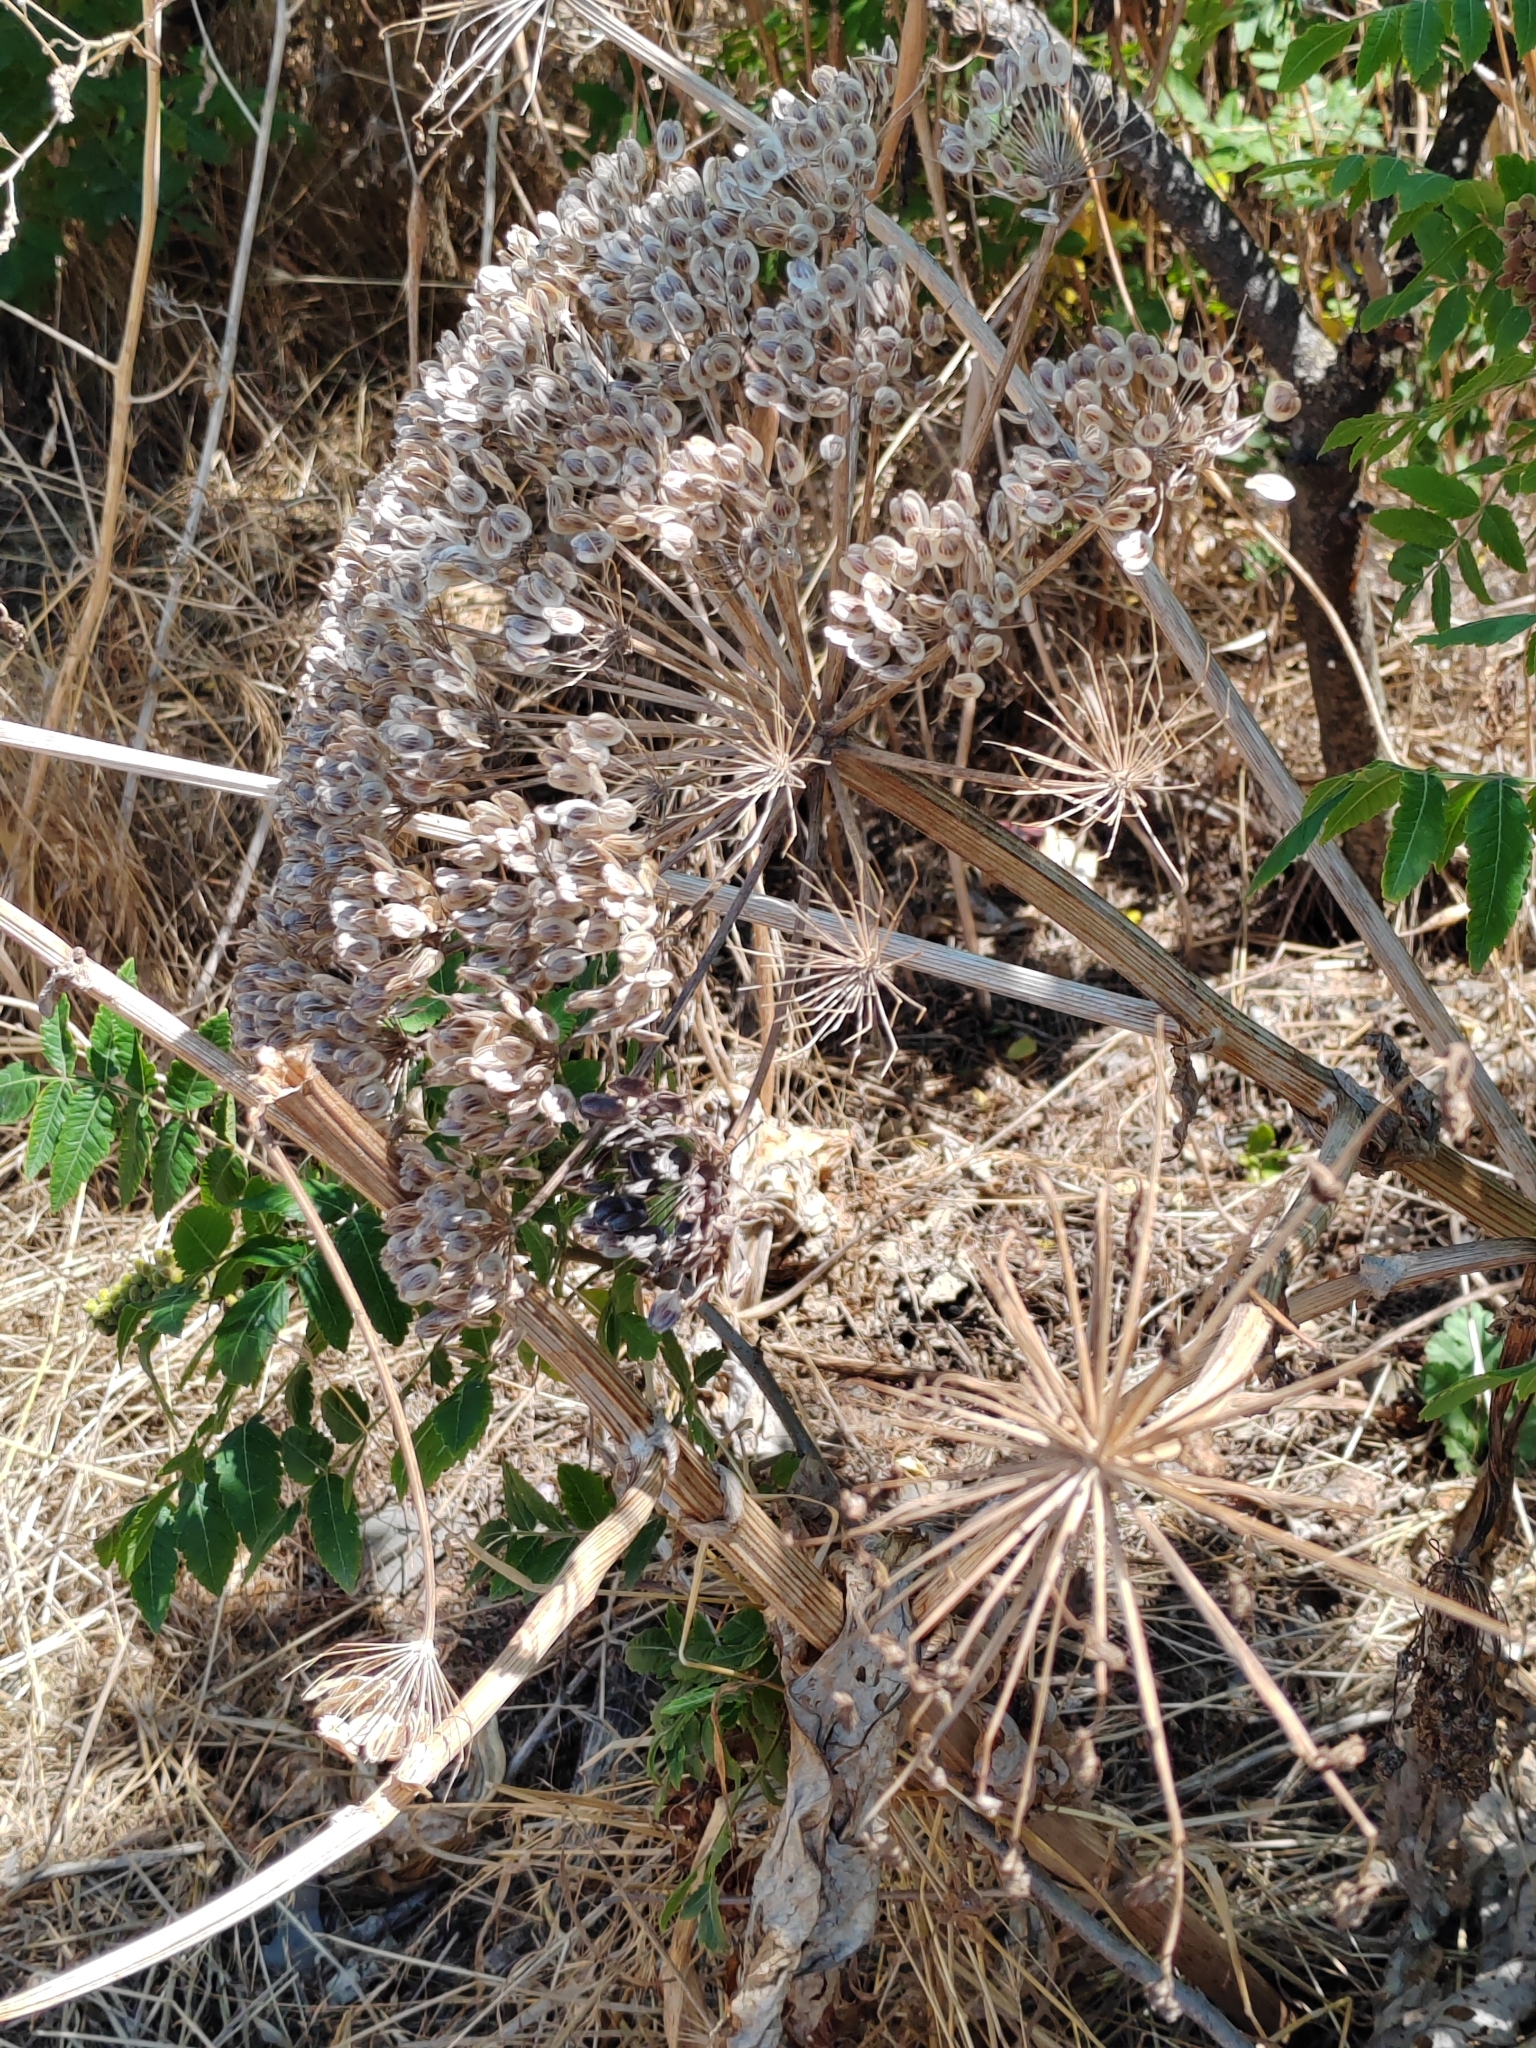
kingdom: Plantae
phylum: Tracheophyta
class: Magnoliopsida
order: Apiales
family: Apiaceae
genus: Heracleum
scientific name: Heracleum stevenii
